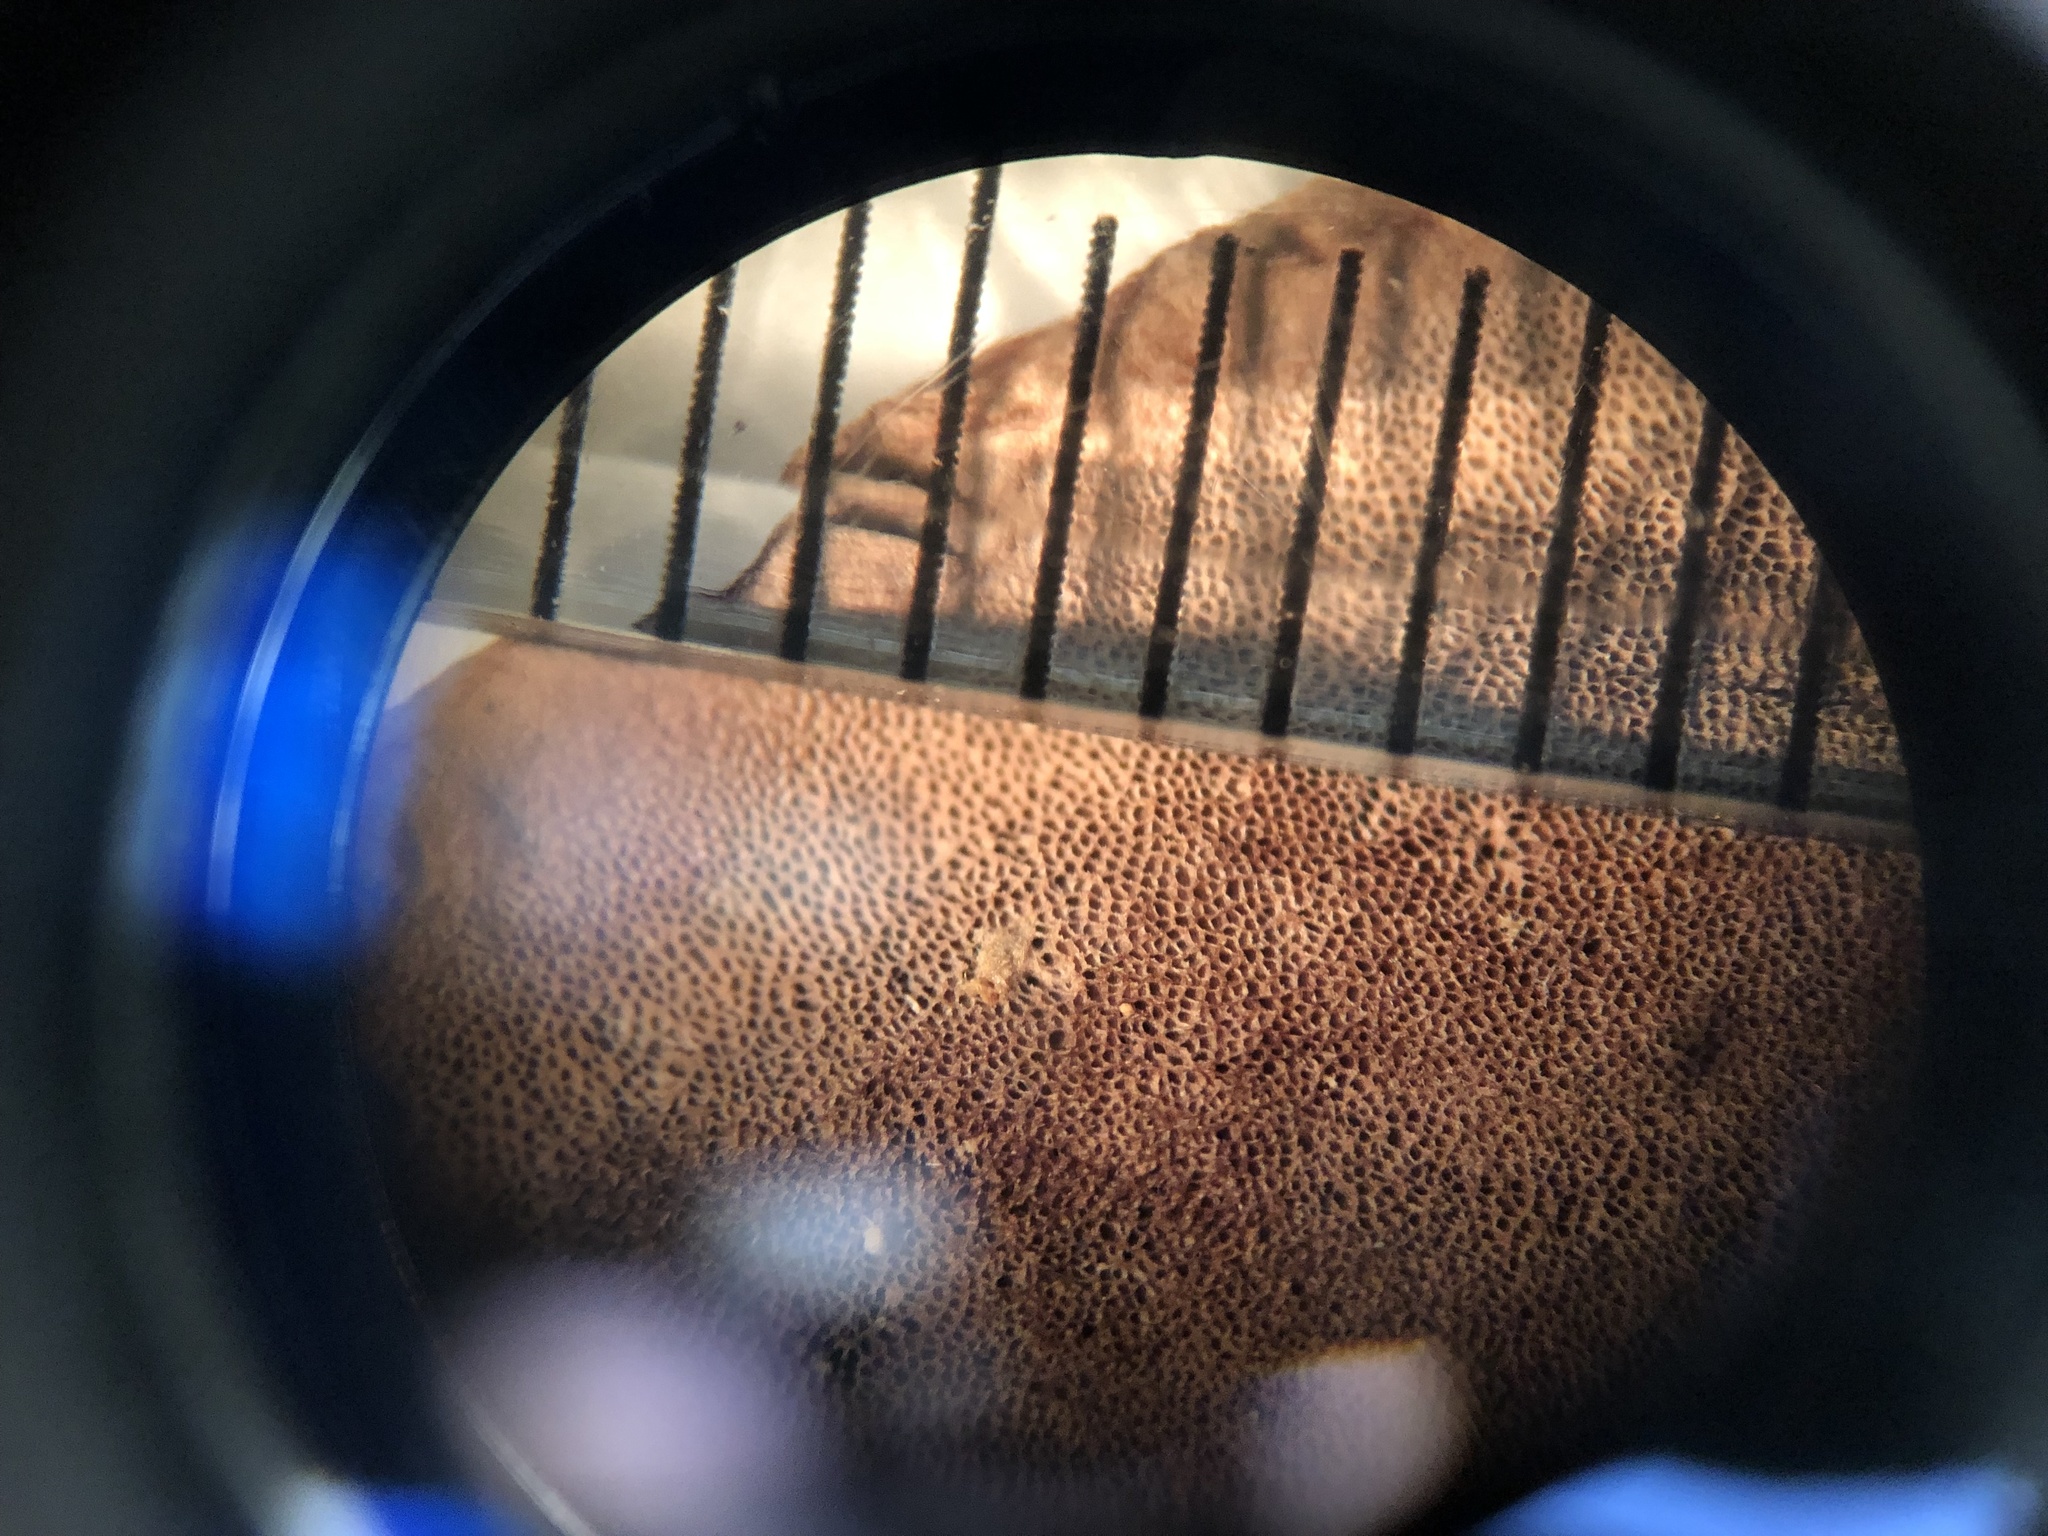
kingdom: Fungi
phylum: Basidiomycota
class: Agaricomycetes
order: Polyporales
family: Steccherinaceae
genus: Nigroporus
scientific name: Nigroporus vinosus
